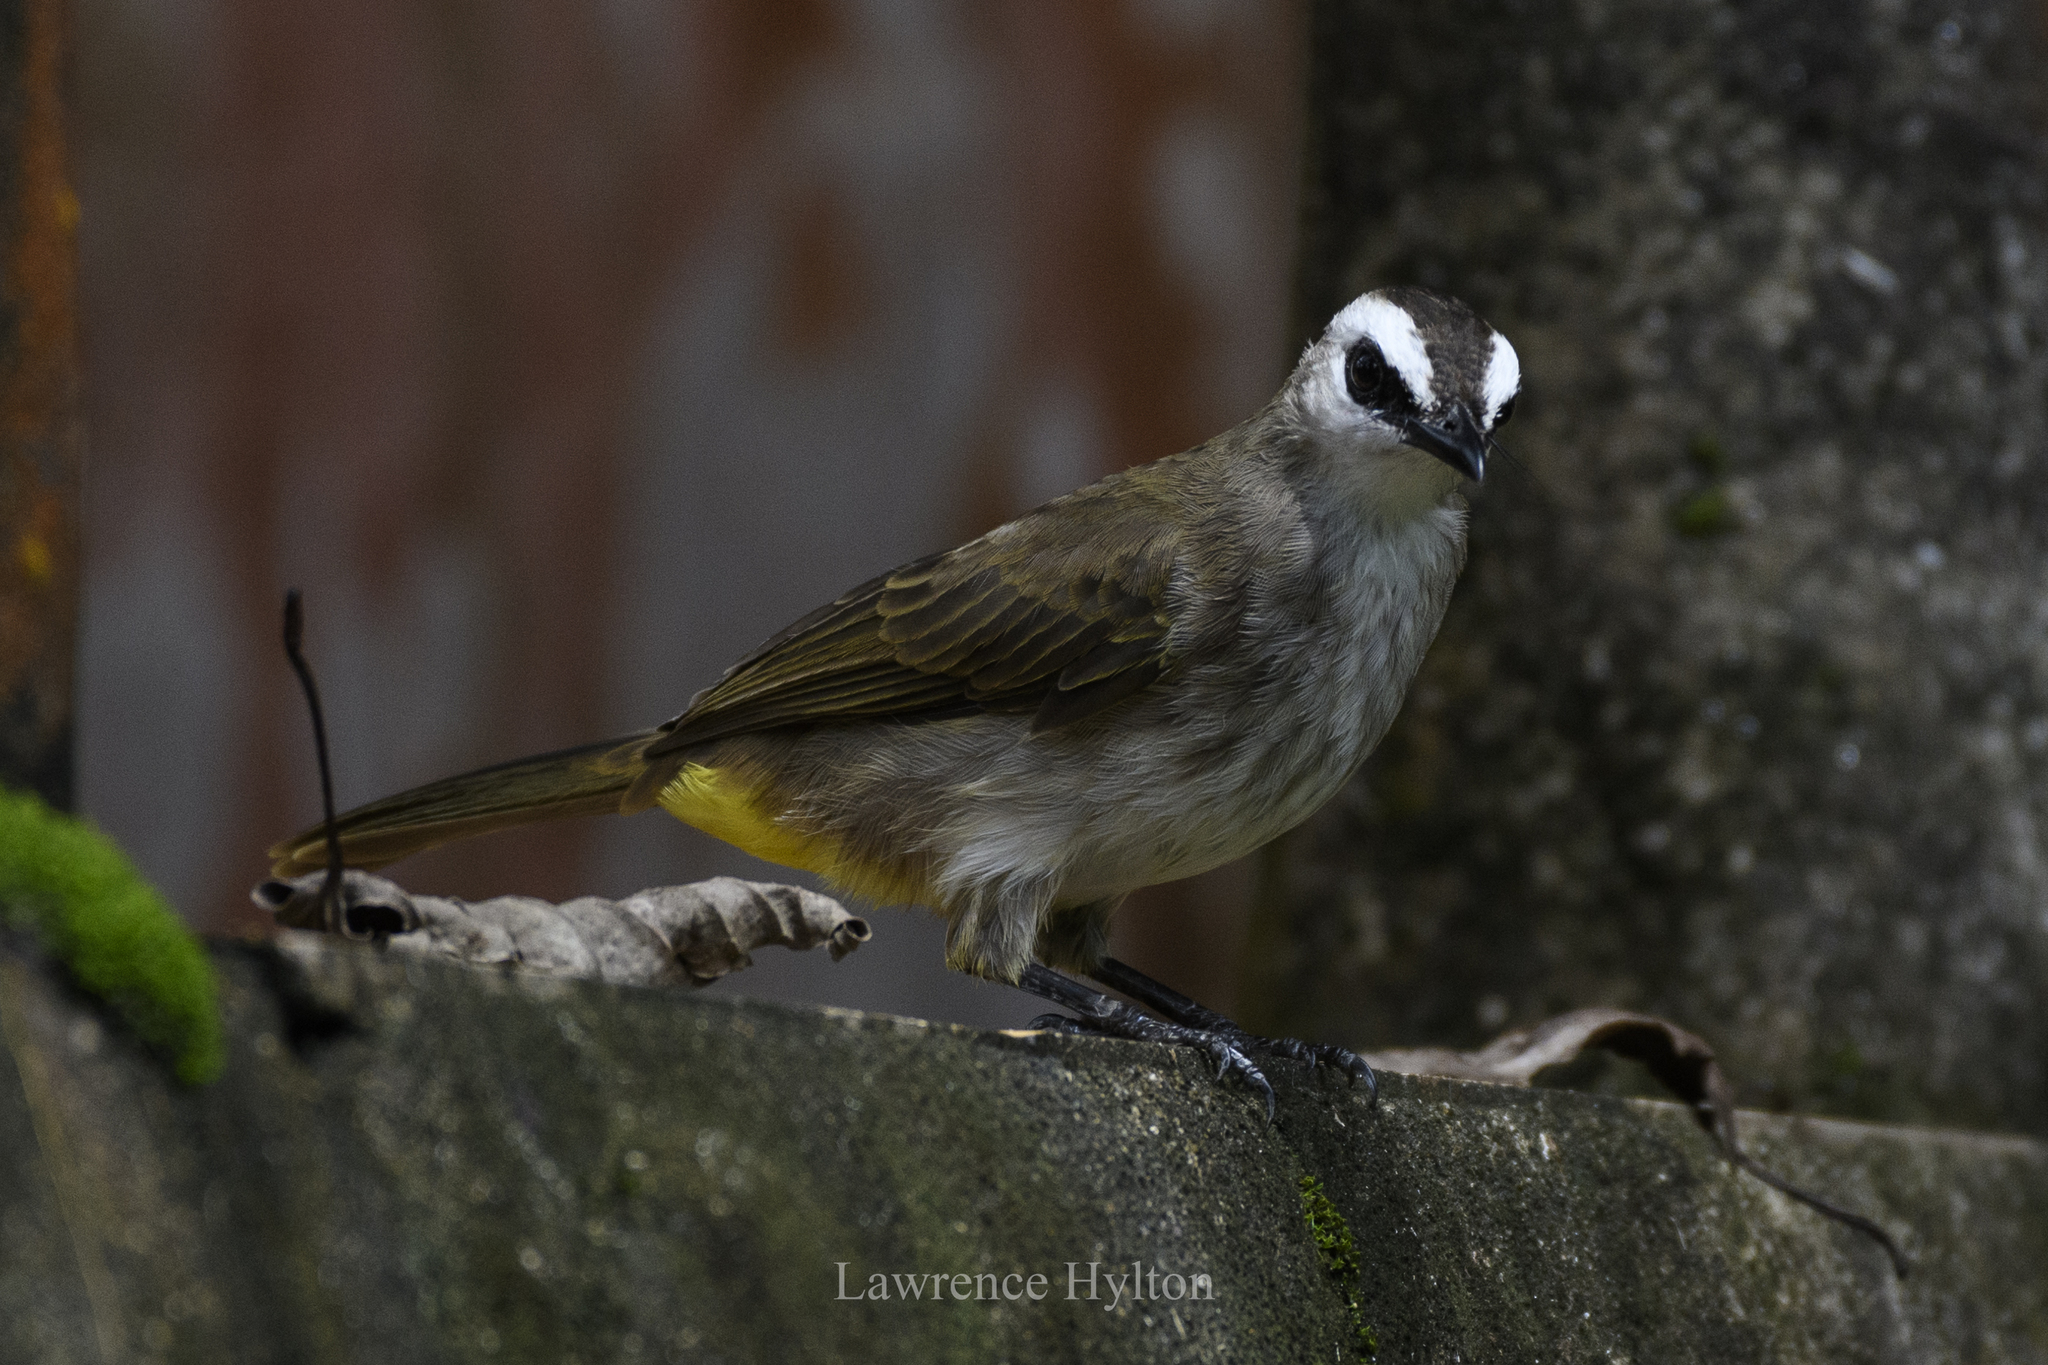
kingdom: Animalia
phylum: Chordata
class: Aves
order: Passeriformes
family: Pycnonotidae
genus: Pycnonotus
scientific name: Pycnonotus goiavier
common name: Yellow-vented bulbul
